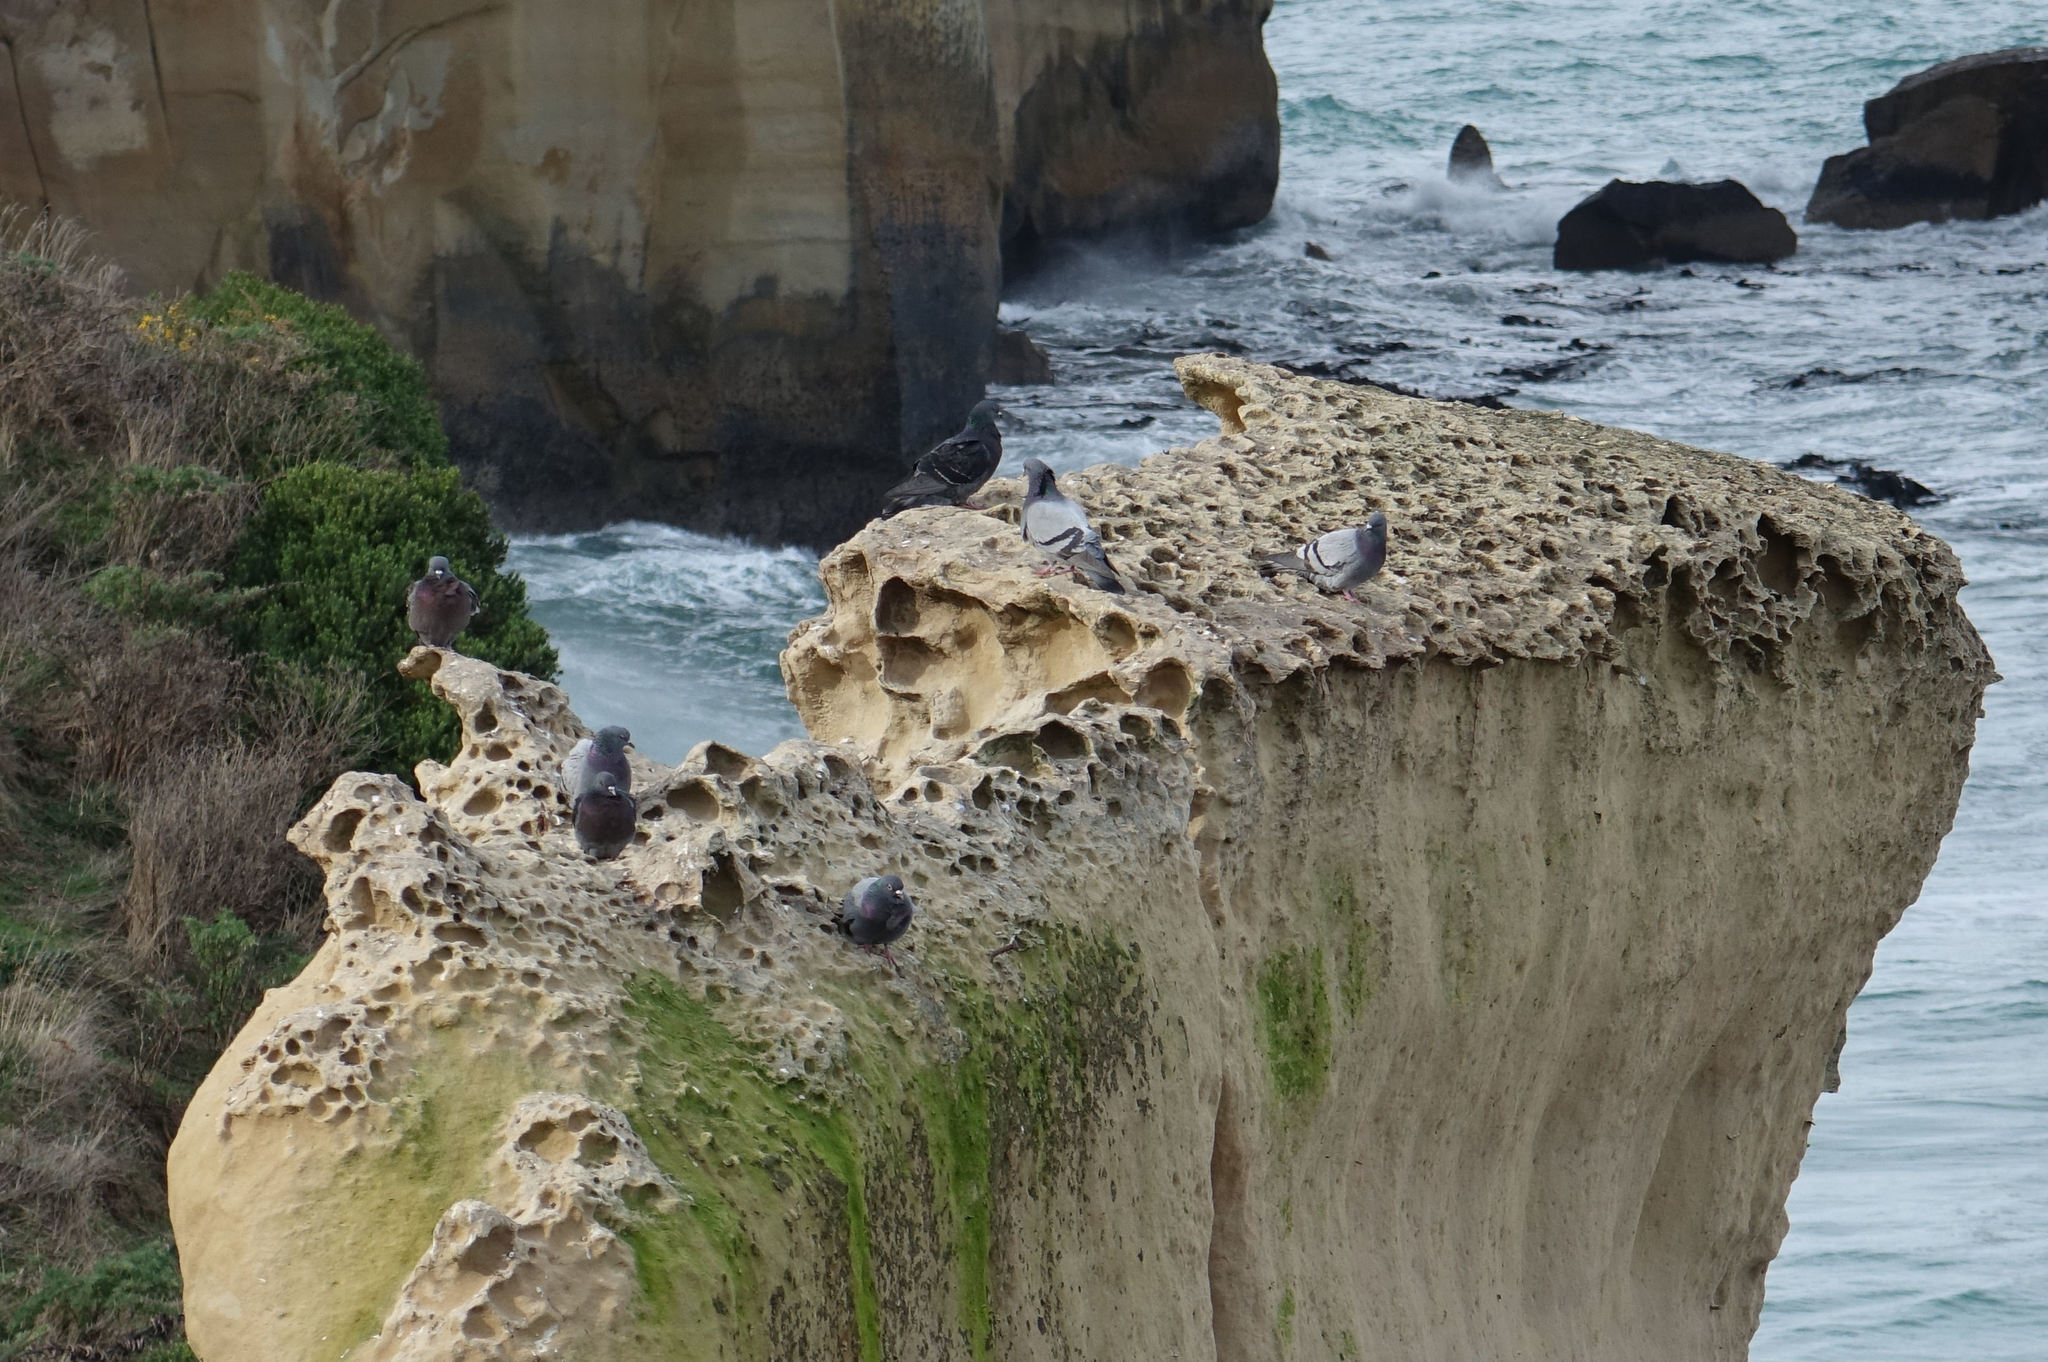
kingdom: Animalia
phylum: Chordata
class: Aves
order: Columbiformes
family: Columbidae
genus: Columba
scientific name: Columba livia
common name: Rock pigeon
